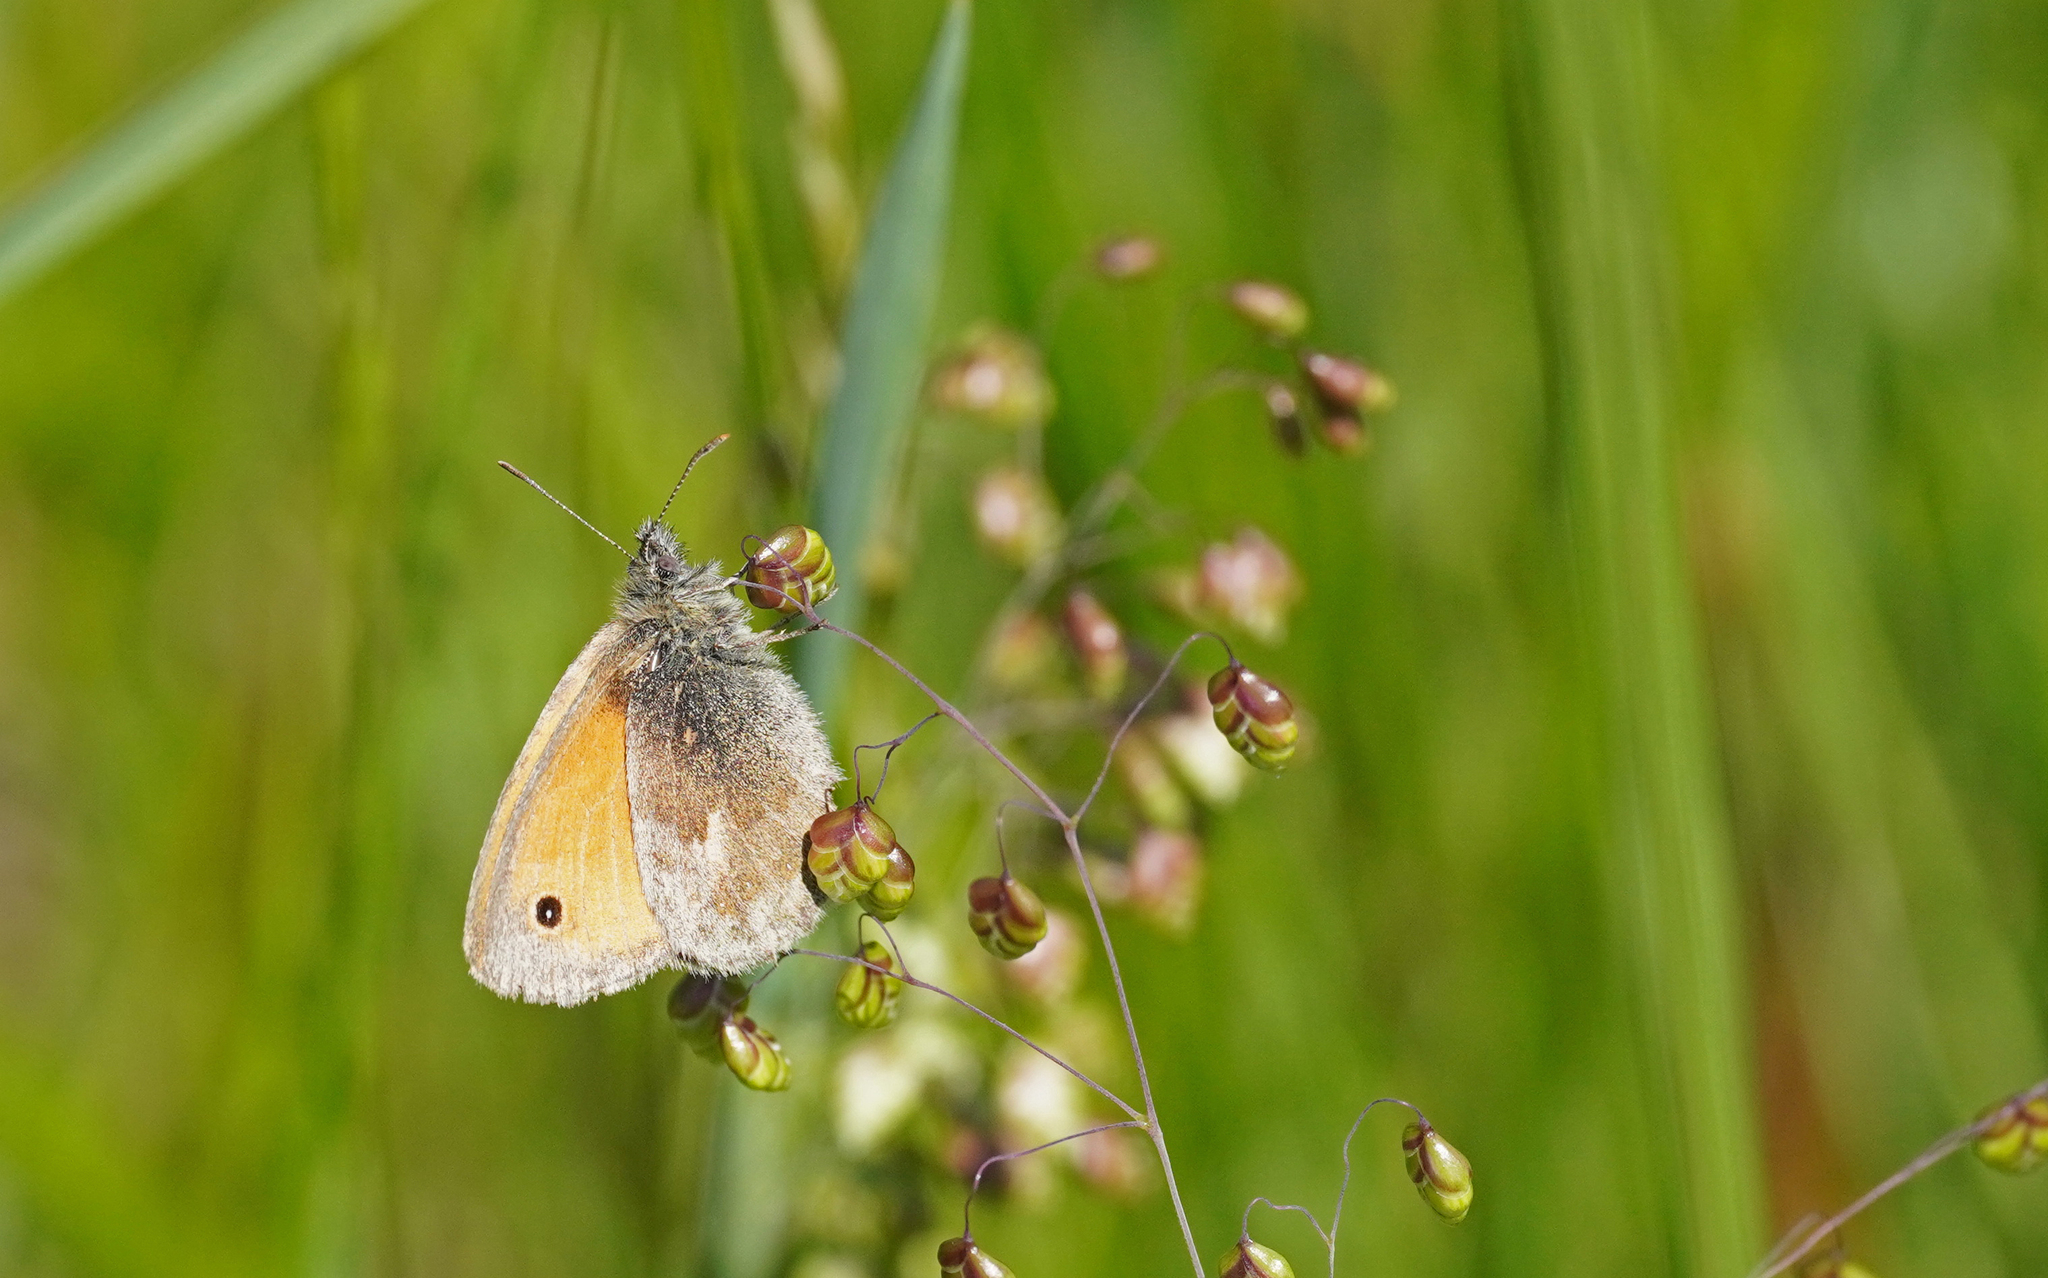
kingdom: Animalia
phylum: Arthropoda
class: Insecta
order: Lepidoptera
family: Nymphalidae
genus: Coenonympha
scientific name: Coenonympha pamphilus
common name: Small heath
